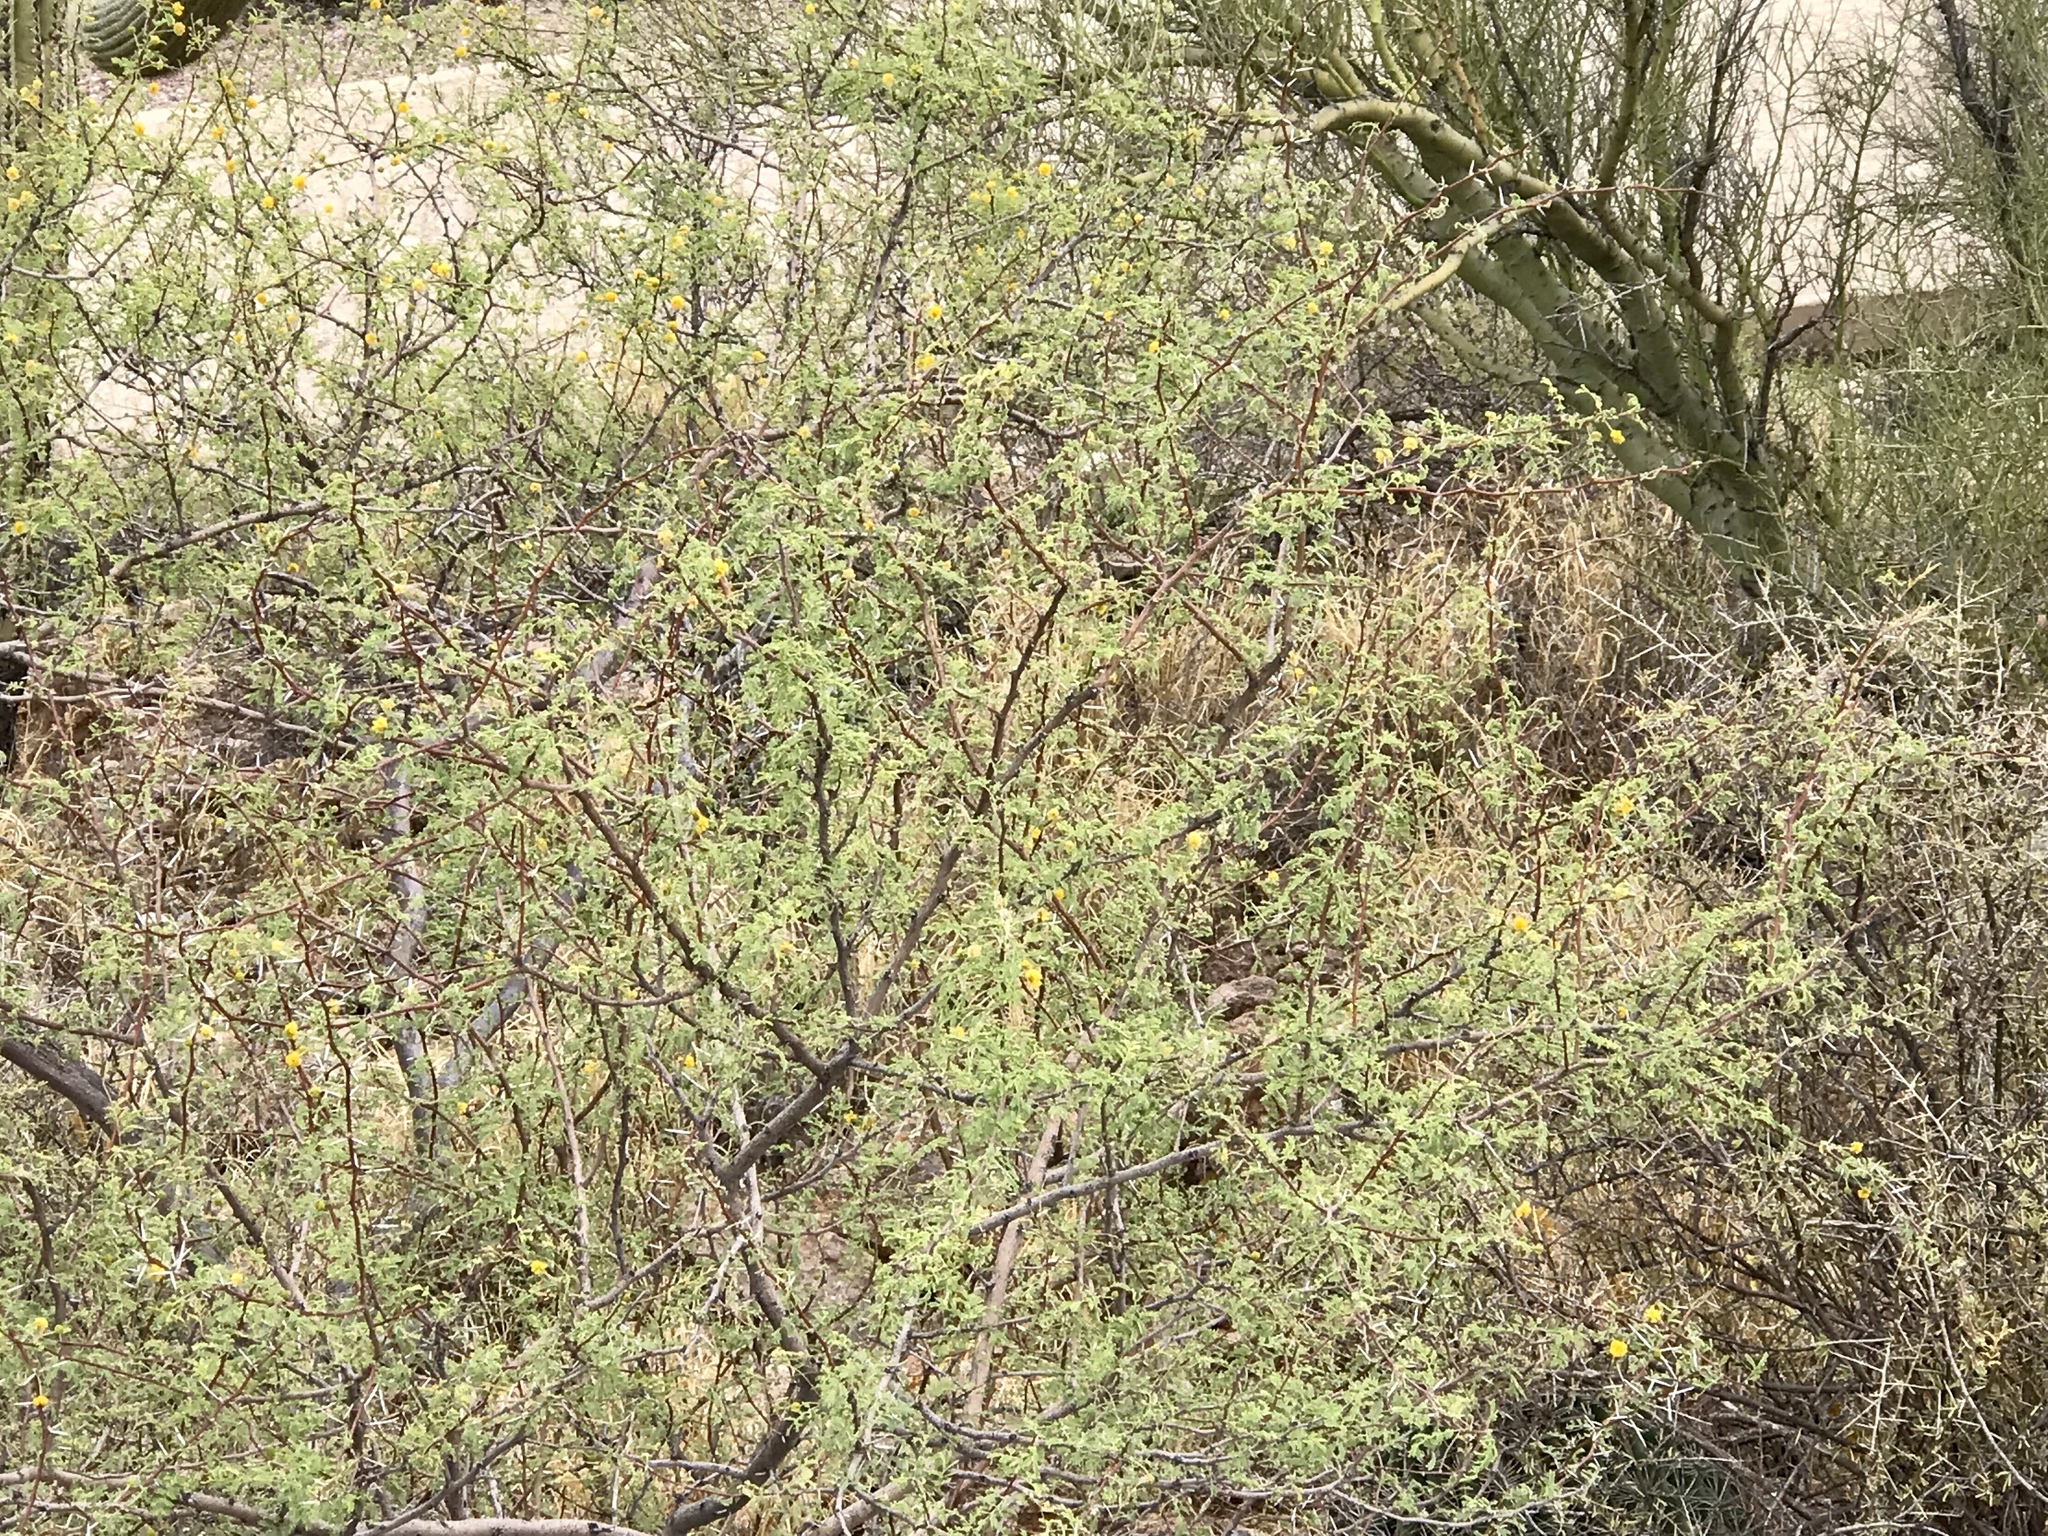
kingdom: Plantae
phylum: Tracheophyta
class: Magnoliopsida
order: Fabales
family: Fabaceae
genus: Vachellia
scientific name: Vachellia constricta
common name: Mescat acacia
